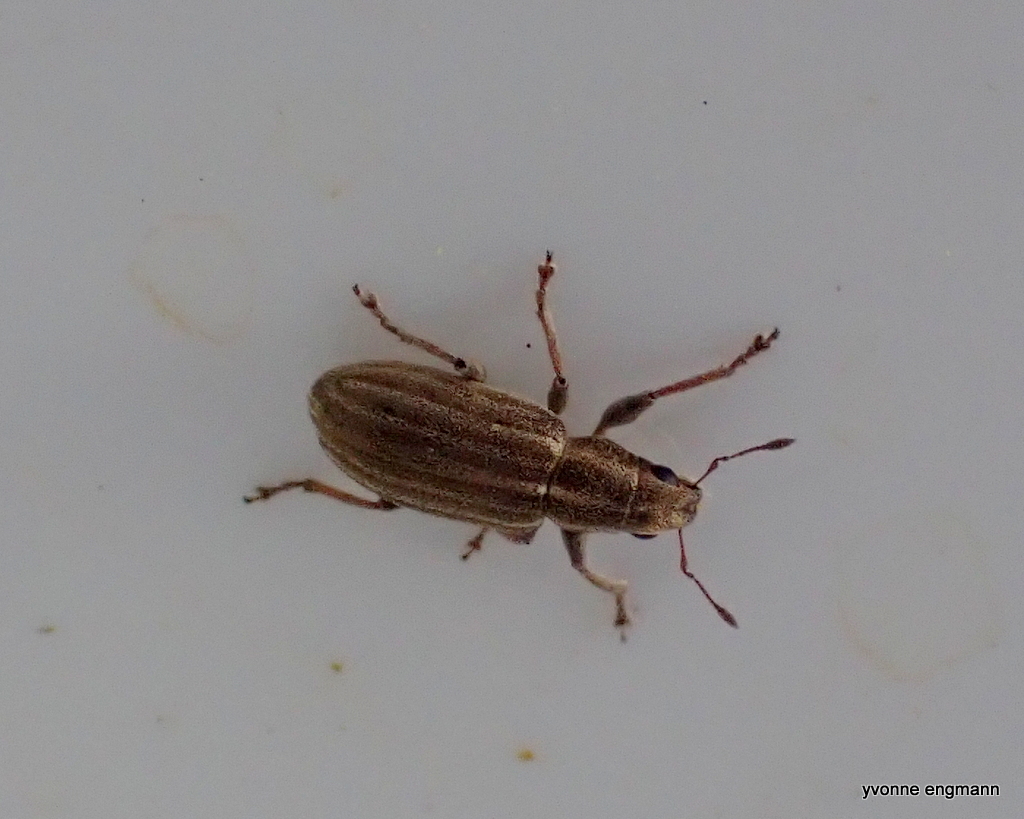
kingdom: Animalia
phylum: Arthropoda
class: Insecta
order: Coleoptera
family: Curculionidae
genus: Sitona
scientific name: Sitona lineatus
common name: Weevil
